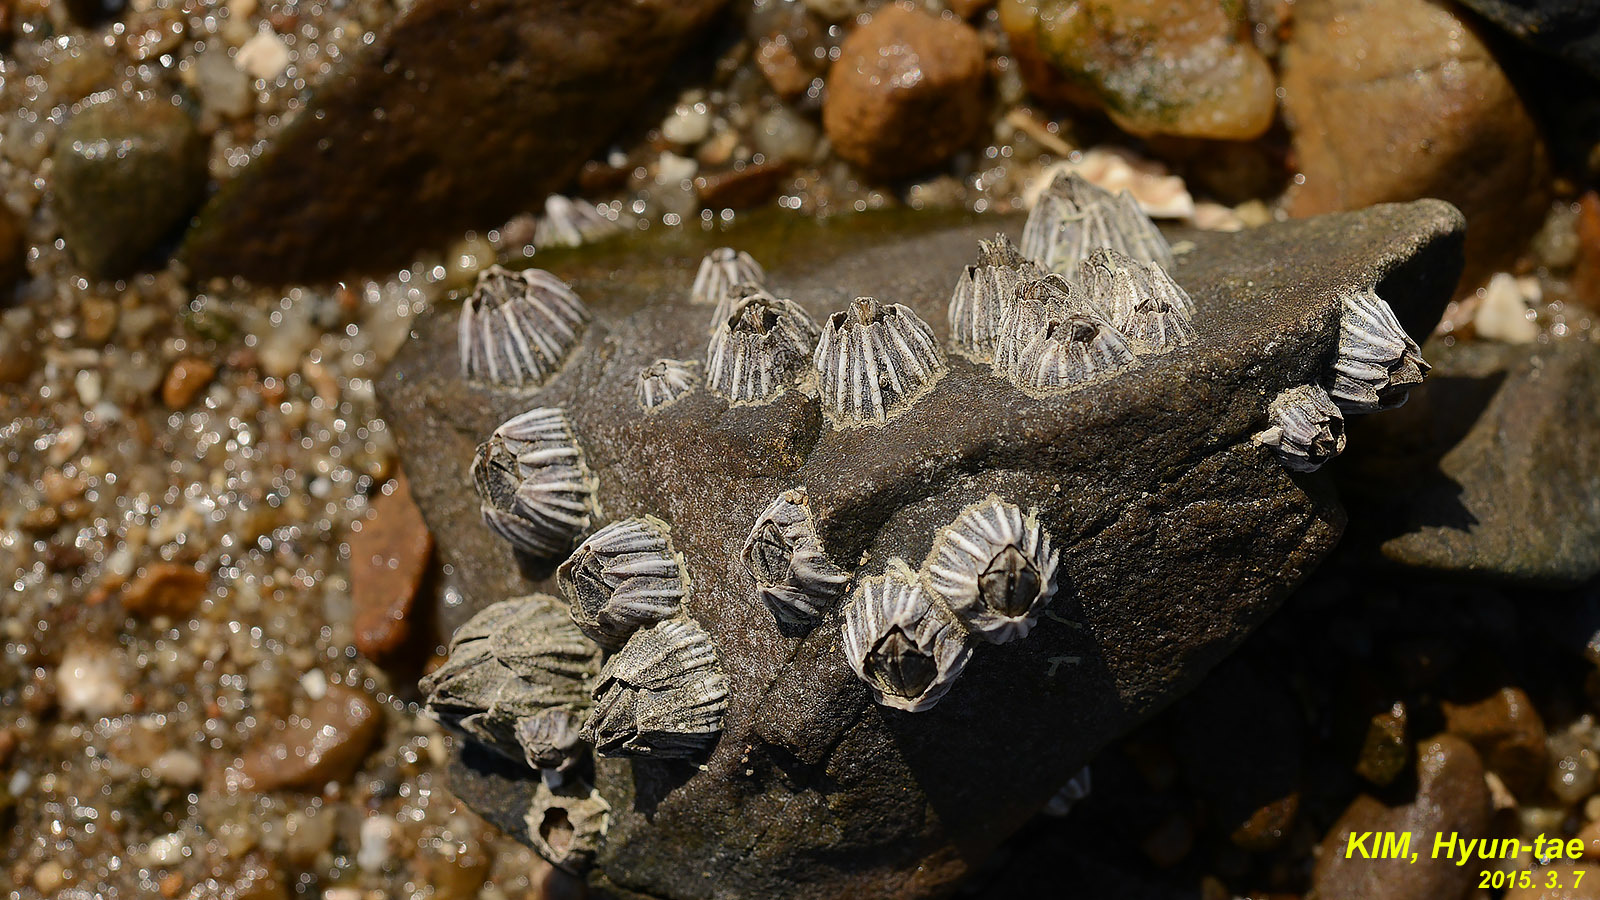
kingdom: Animalia
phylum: Arthropoda
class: Maxillopoda
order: Sessilia
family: Balanidae
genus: Fistulobalanus
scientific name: Fistulobalanus albicostatus
